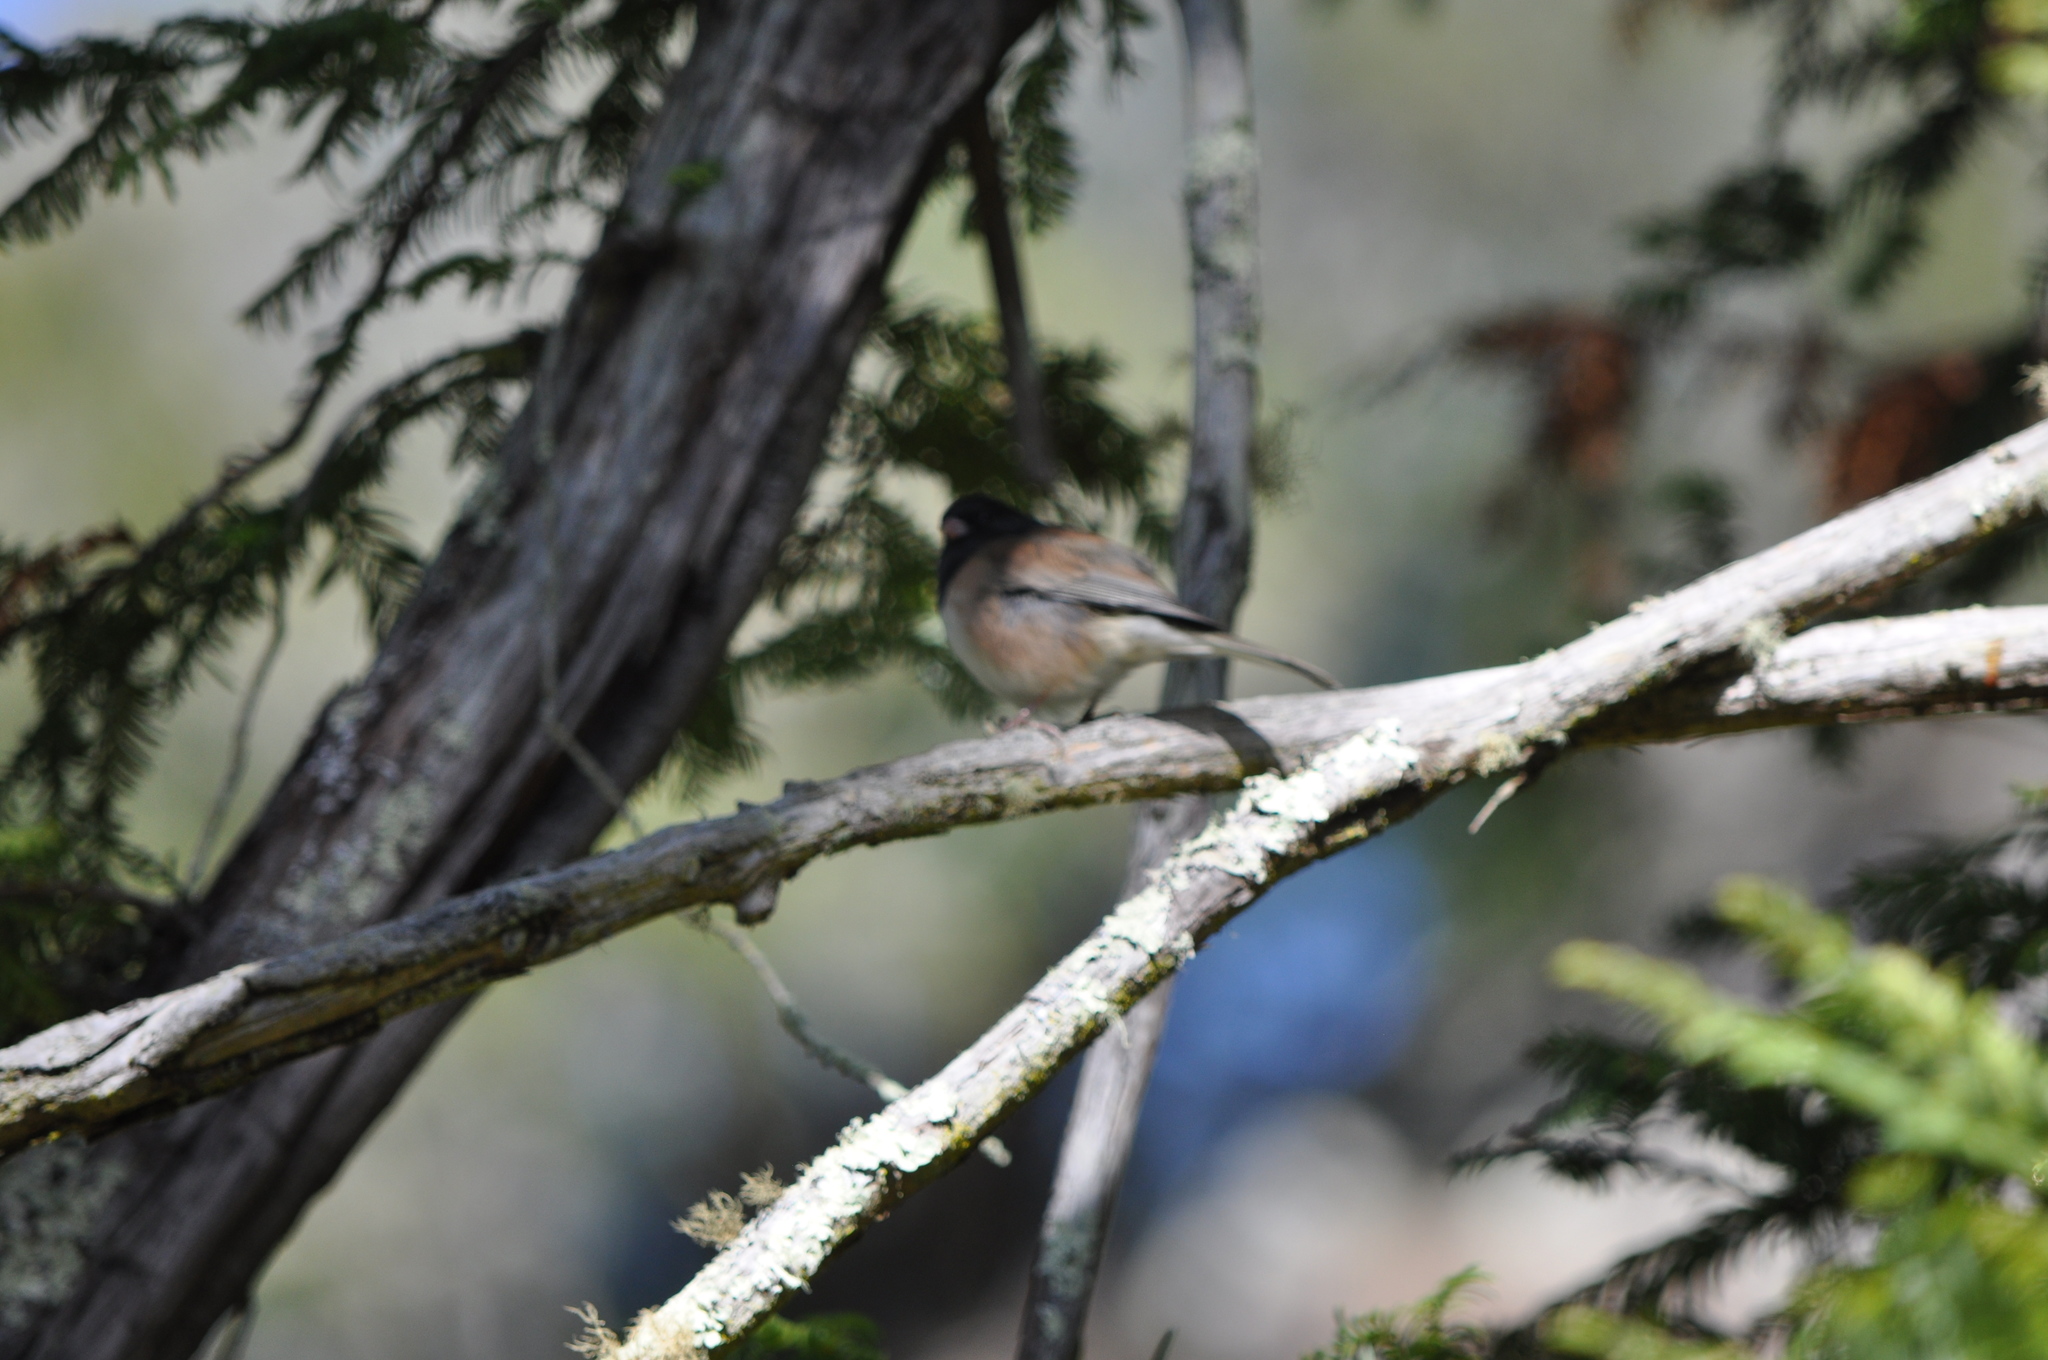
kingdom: Animalia
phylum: Chordata
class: Aves
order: Passeriformes
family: Passerellidae
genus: Junco
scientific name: Junco hyemalis
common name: Dark-eyed junco
